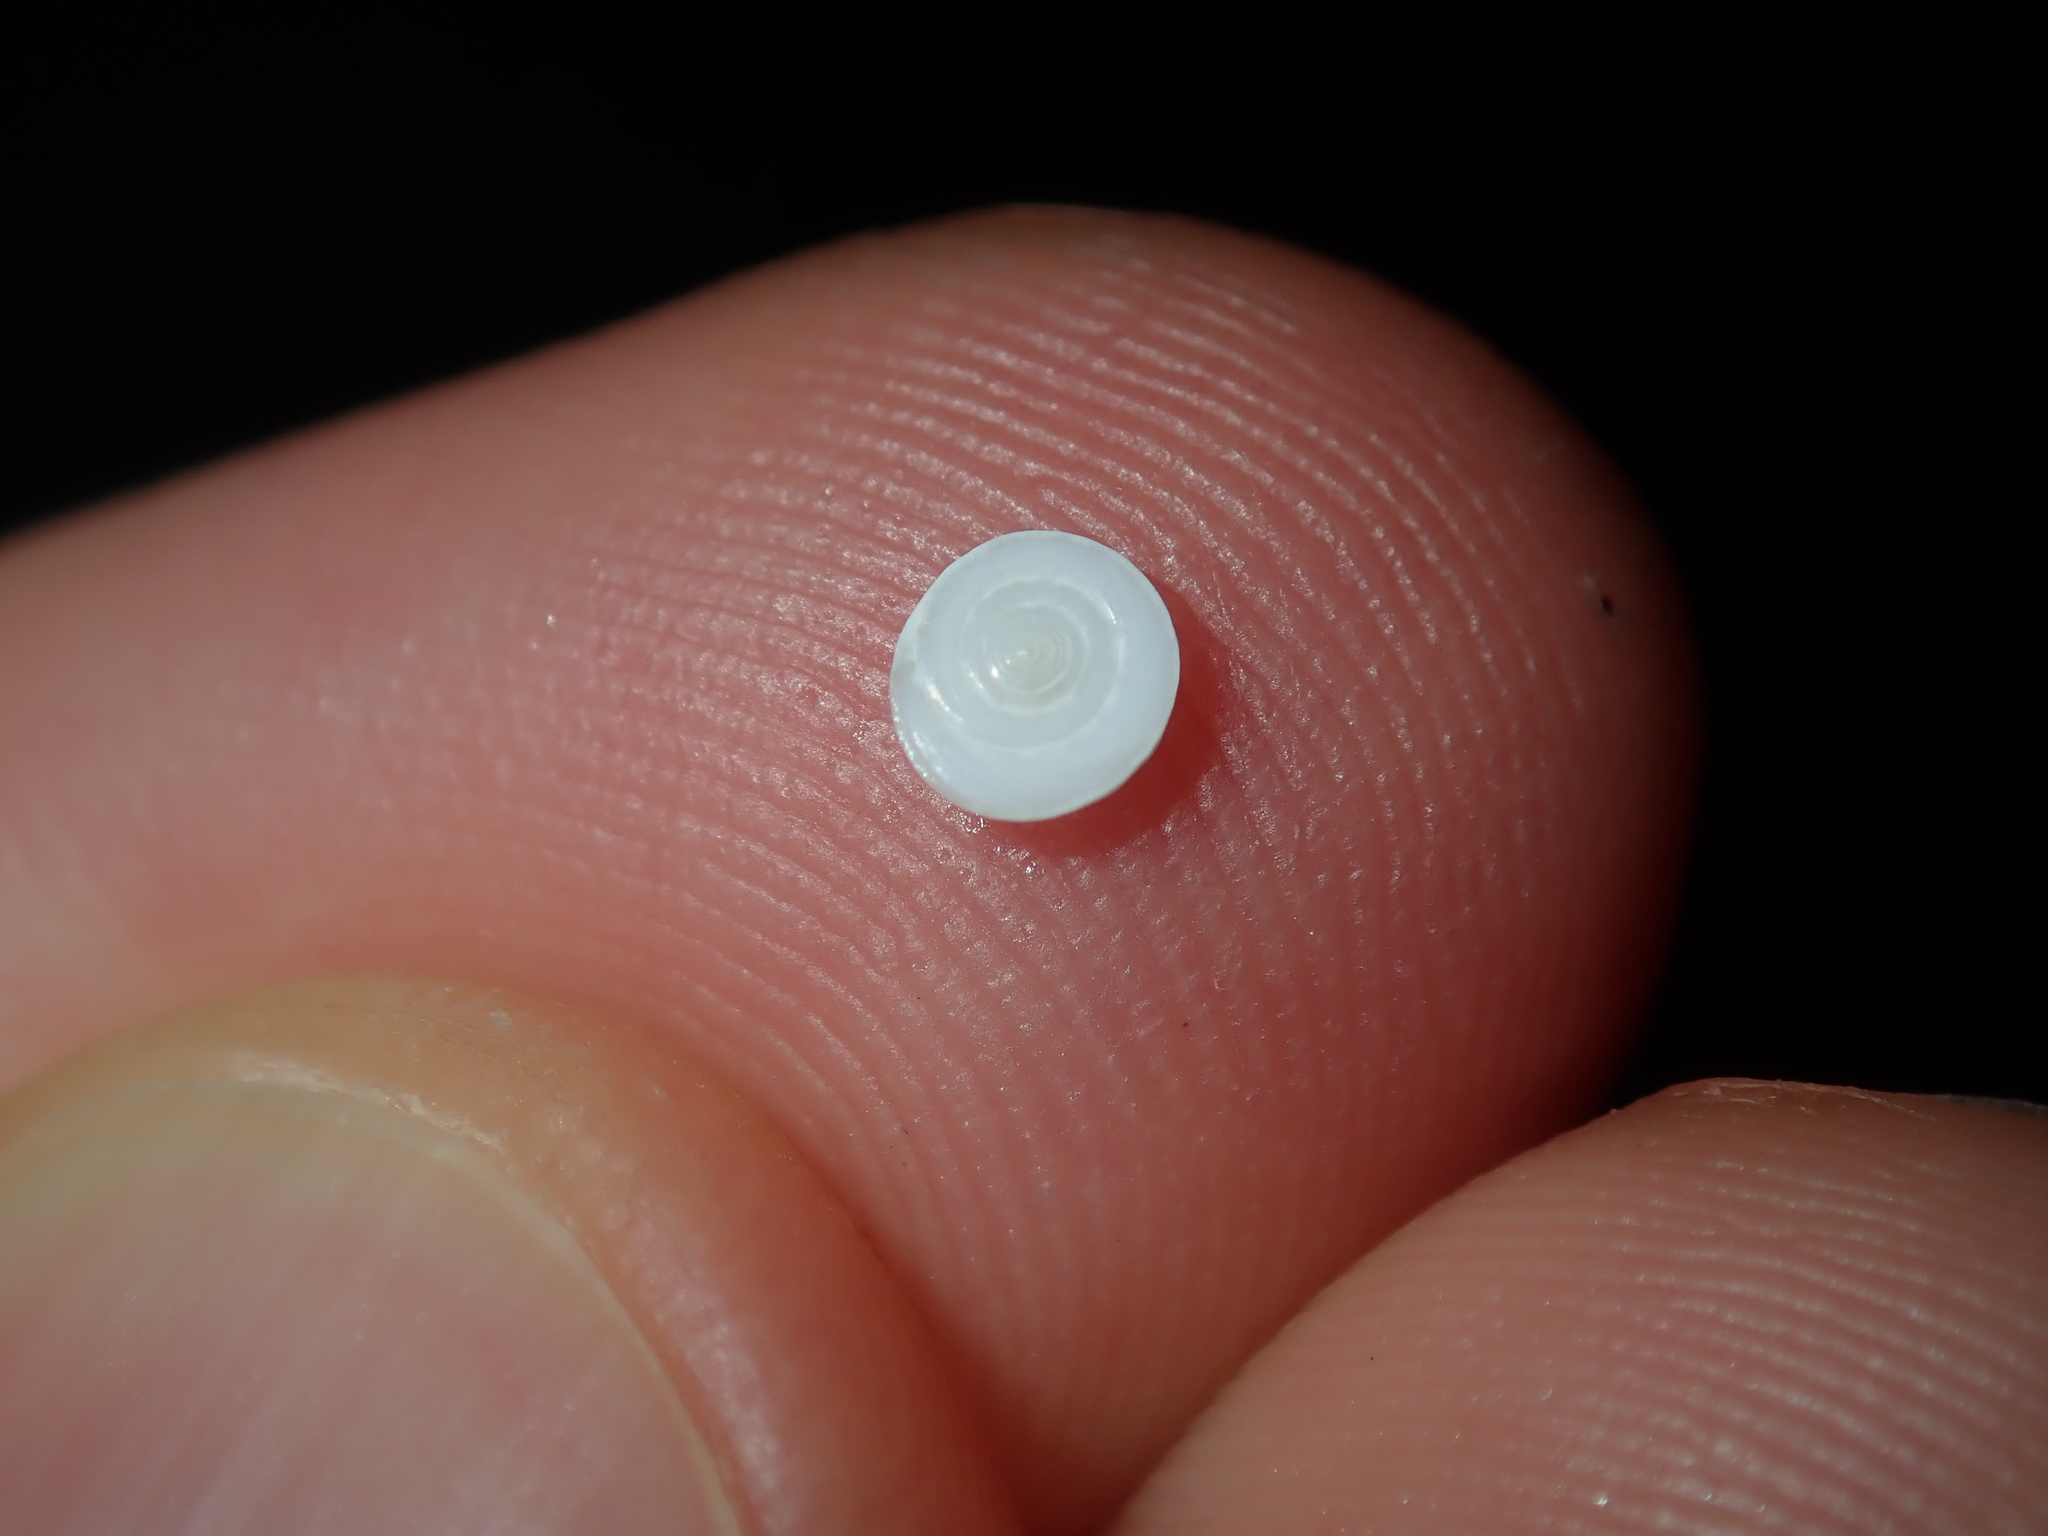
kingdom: Animalia
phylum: Mollusca
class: Gastropoda
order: Trochida
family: Turbinidae
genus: Lunella
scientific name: Lunella torquata
